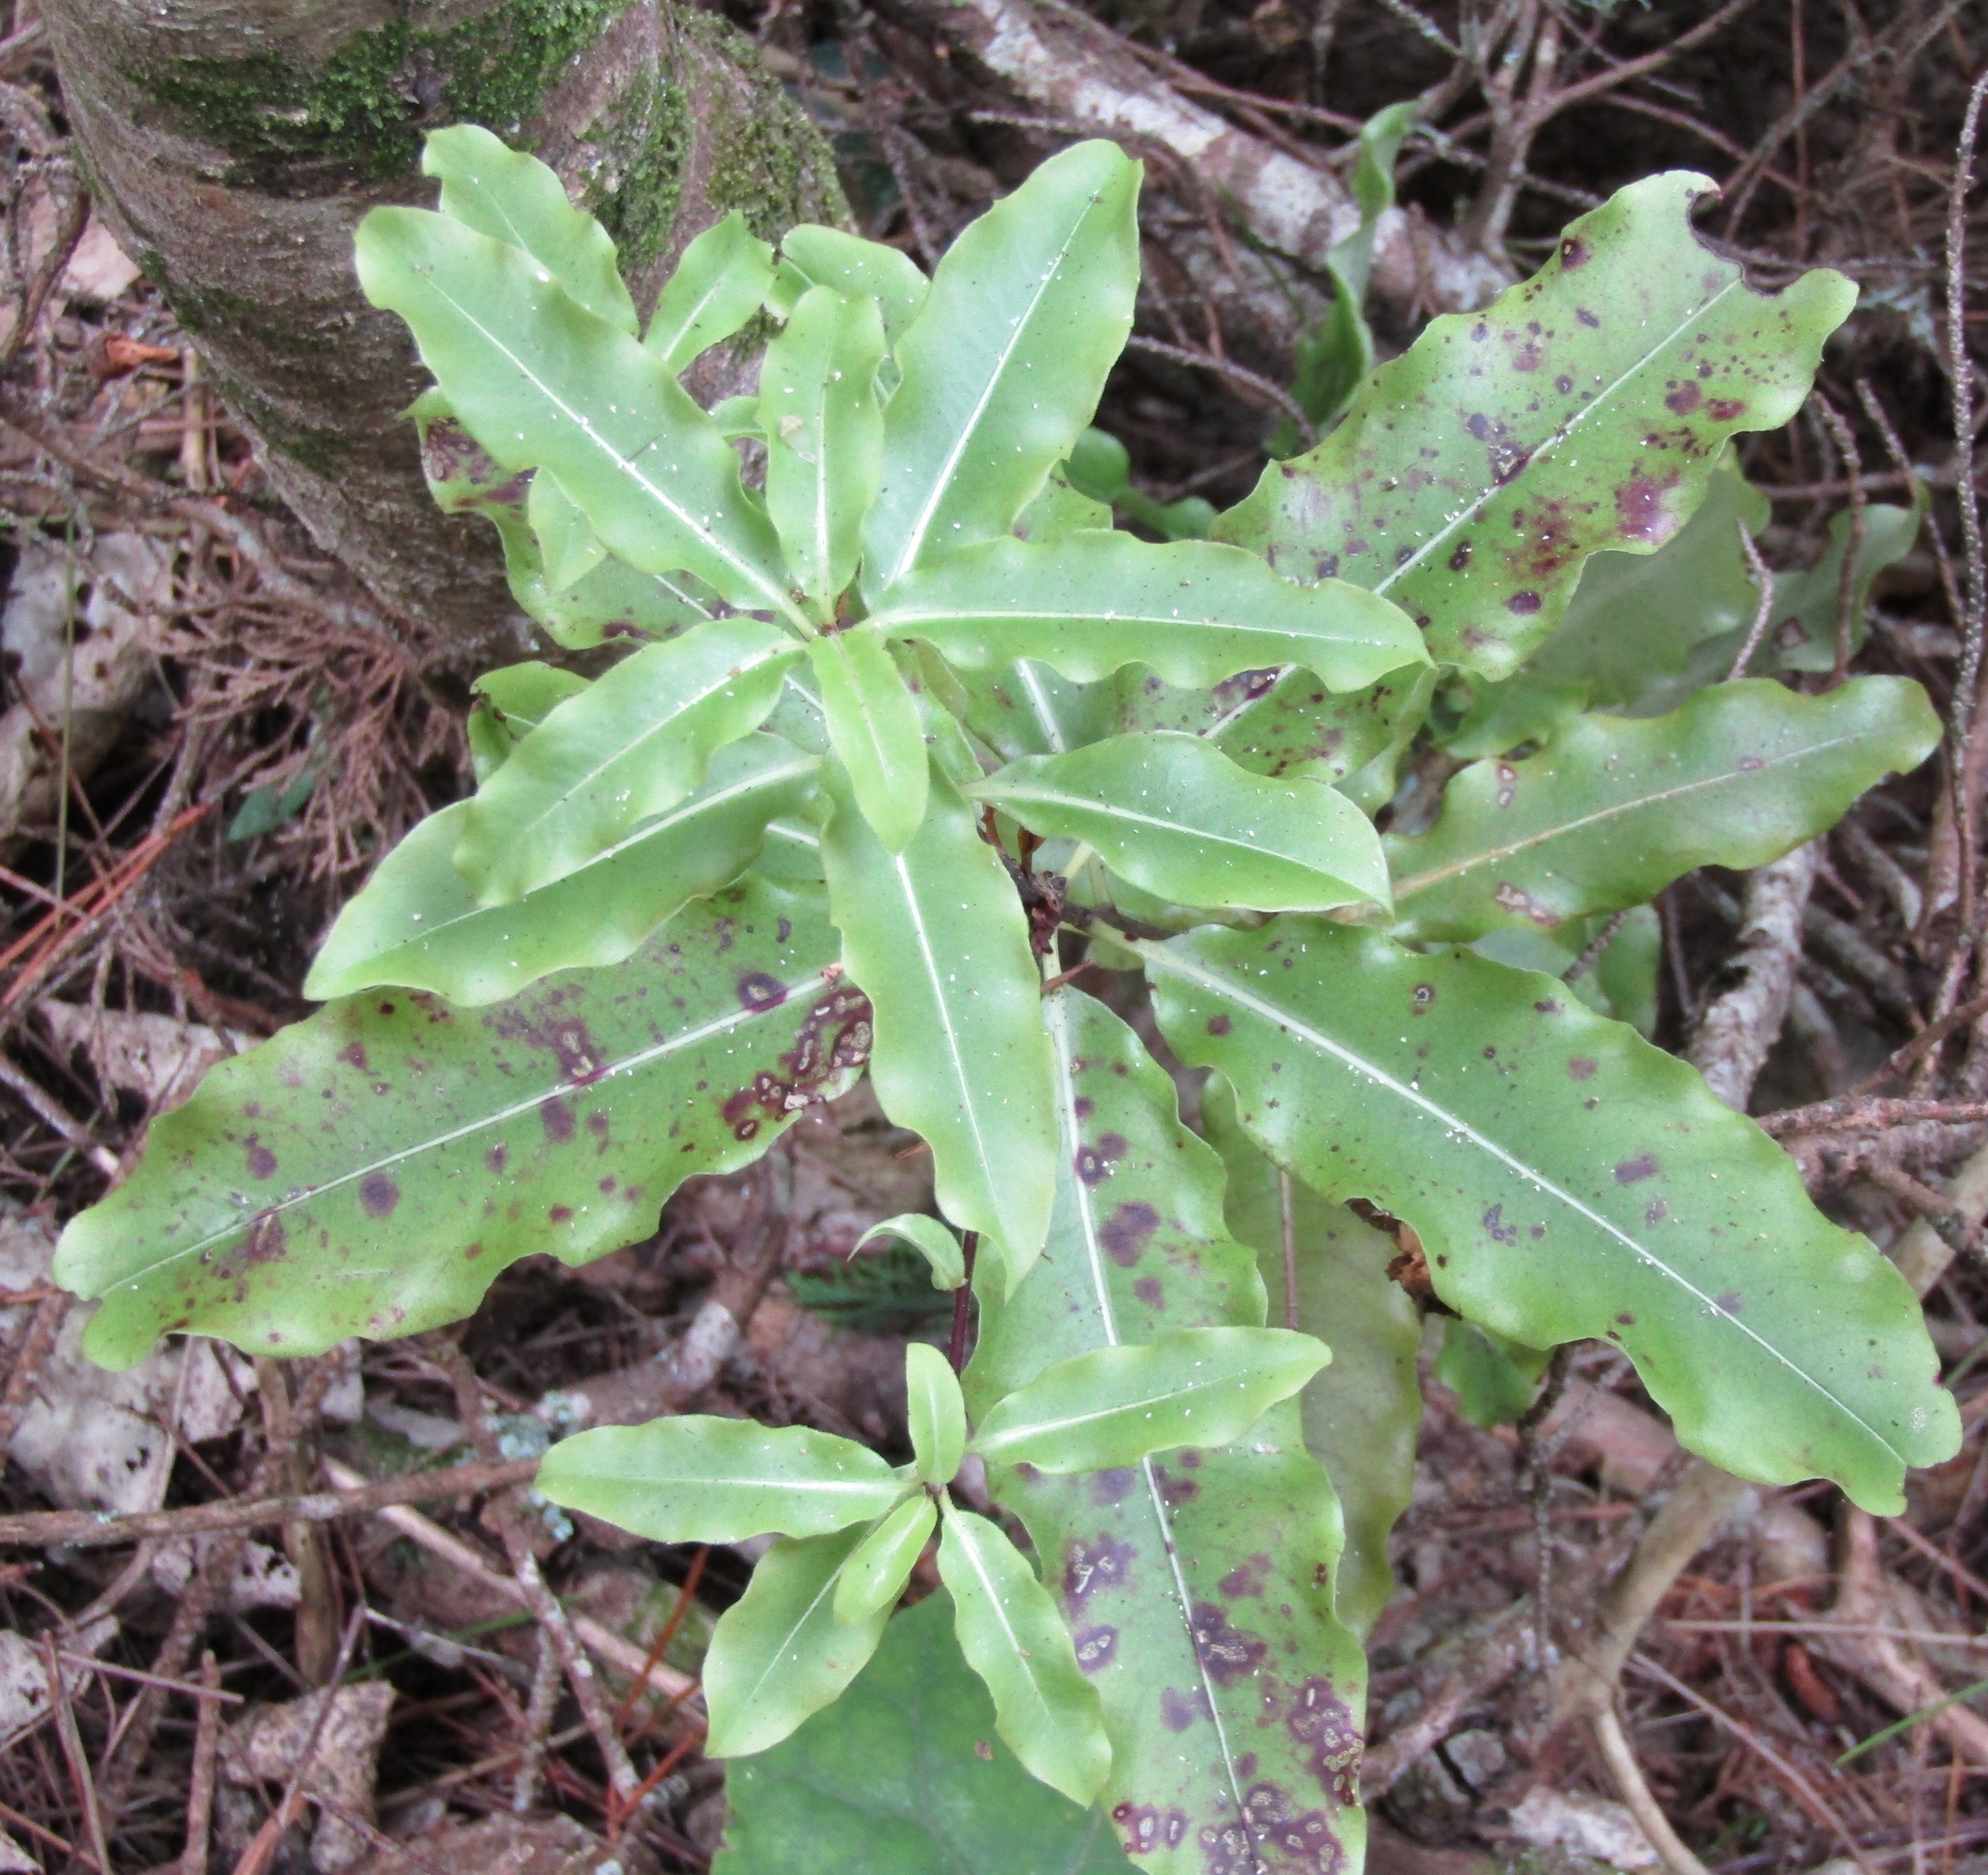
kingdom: Plantae
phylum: Tracheophyta
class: Magnoliopsida
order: Apiales
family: Pittosporaceae
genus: Pittosporum
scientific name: Pittosporum eugenioides
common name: Lemonwood
